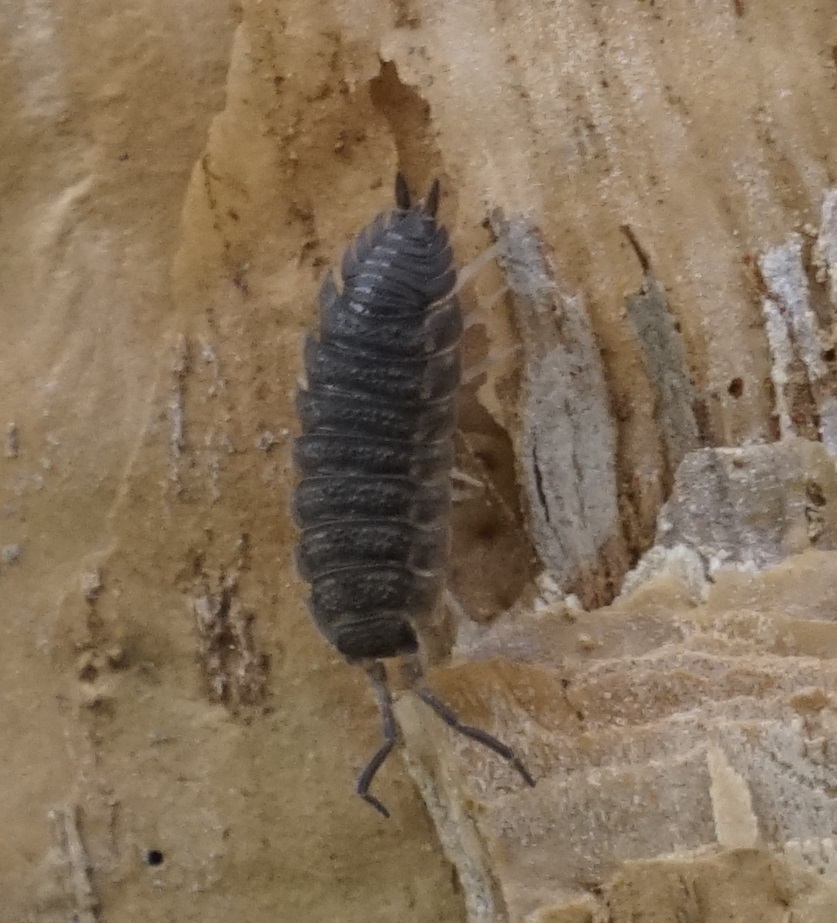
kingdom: Animalia
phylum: Arthropoda
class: Malacostraca
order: Isopoda
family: Porcellionidae
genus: Porcellio
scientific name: Porcellio scaber
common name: Common rough woodlouse
